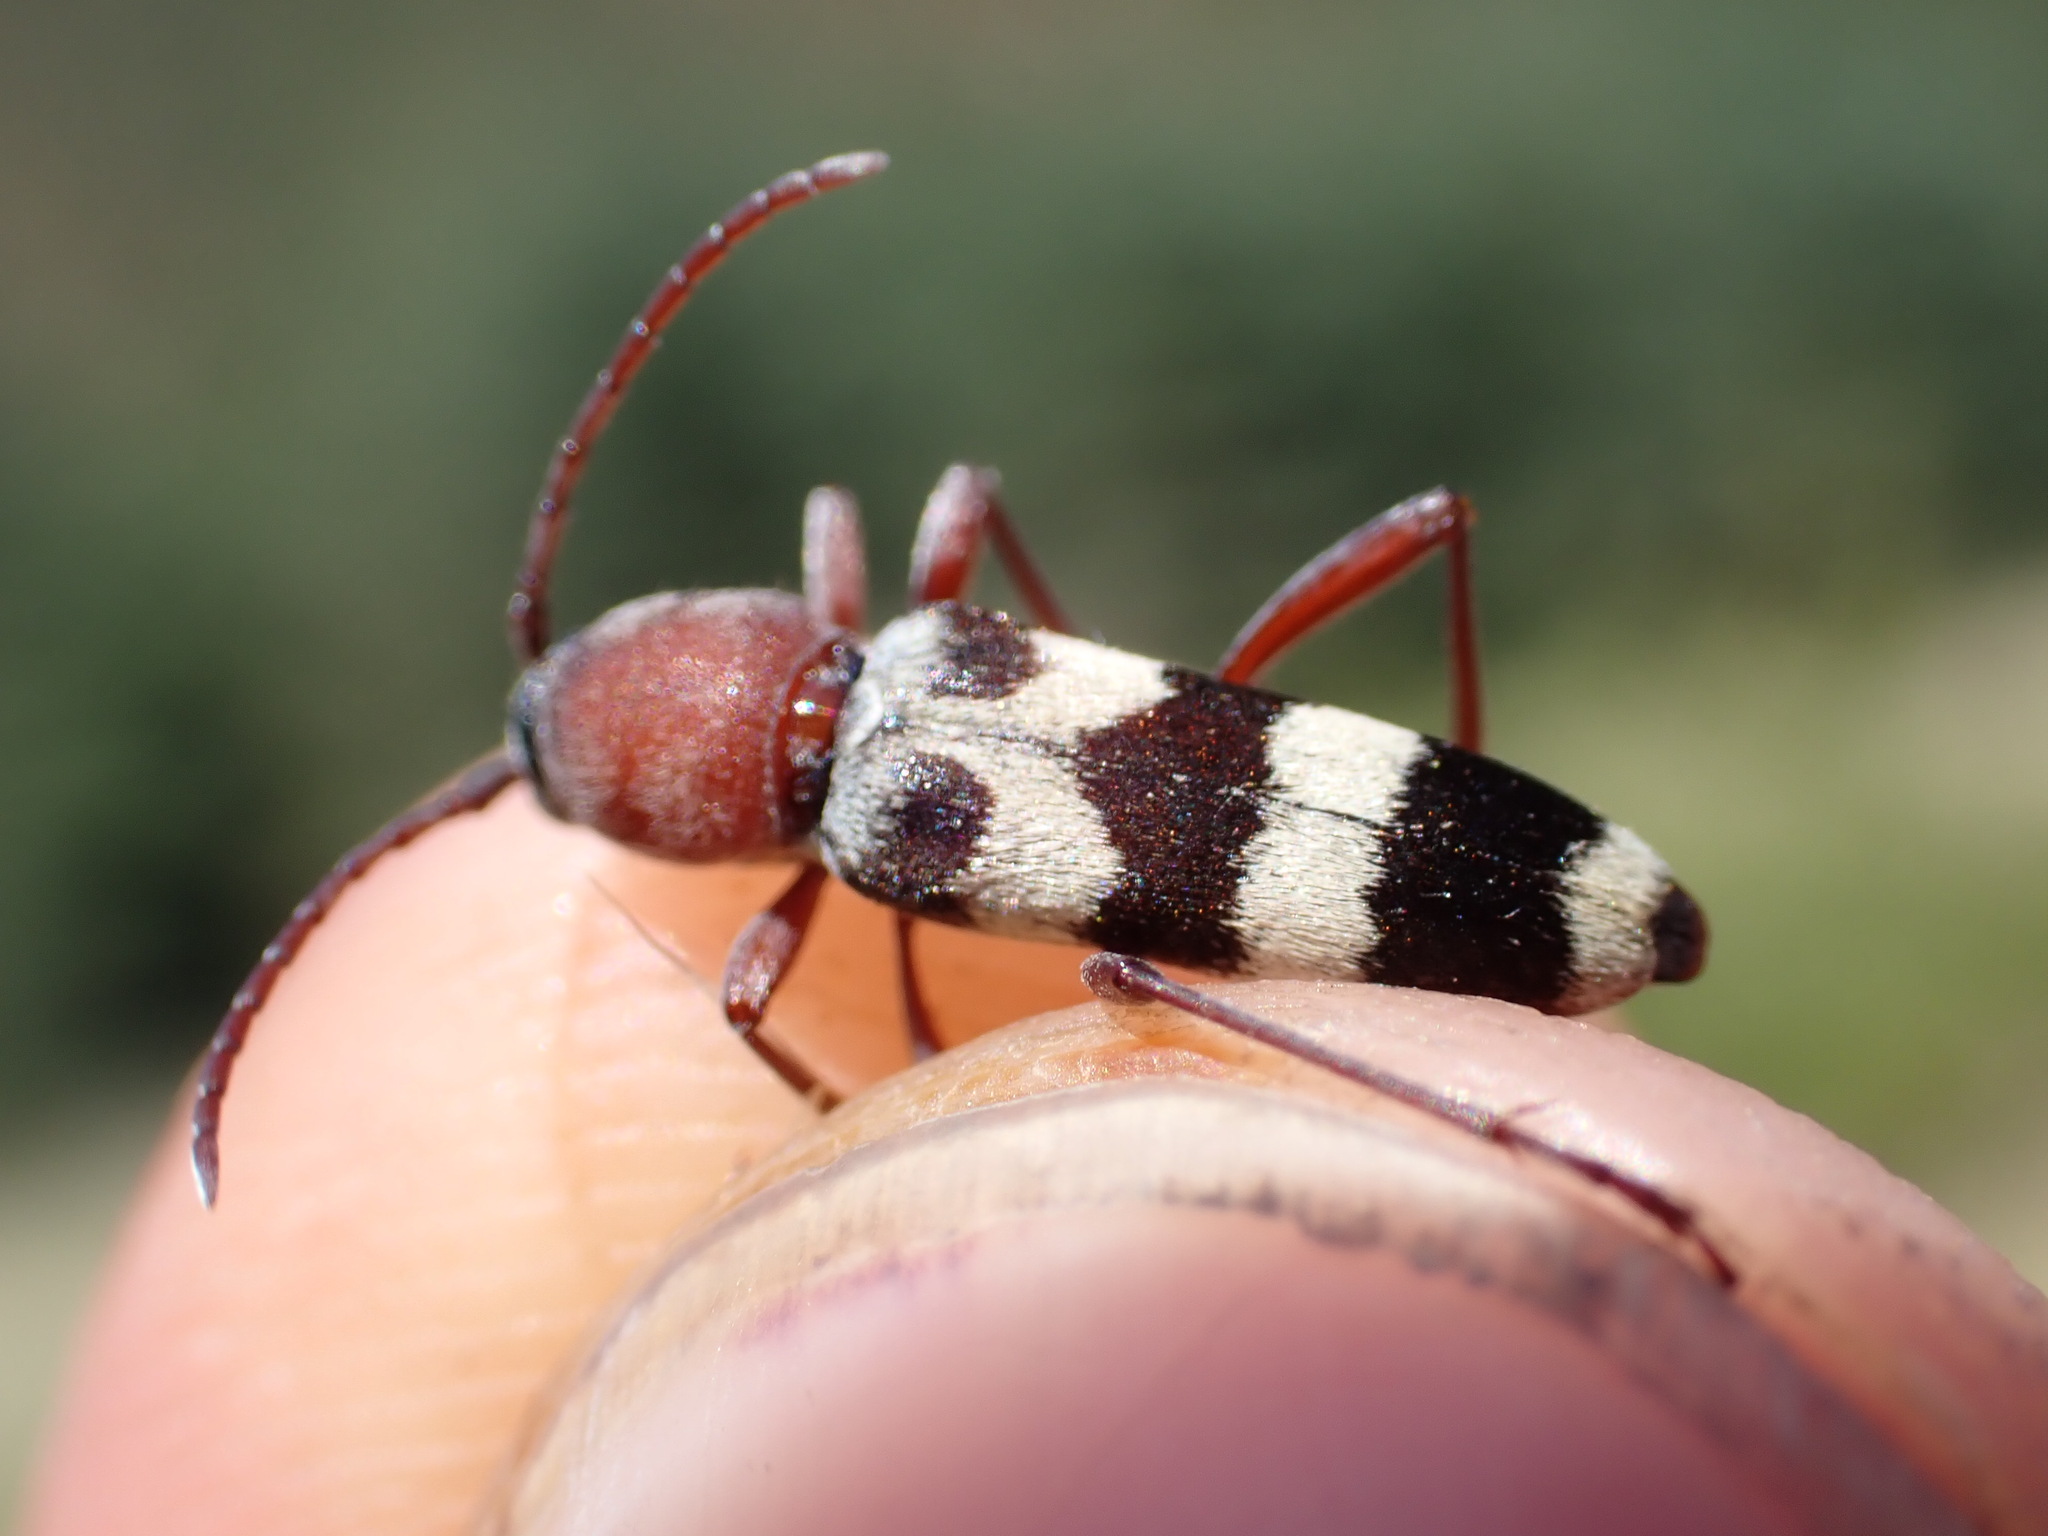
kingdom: Animalia
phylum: Arthropoda
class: Insecta
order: Coleoptera
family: Cerambycidae
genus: Chlorophorus
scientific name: Chlorophorus trifasciatus
